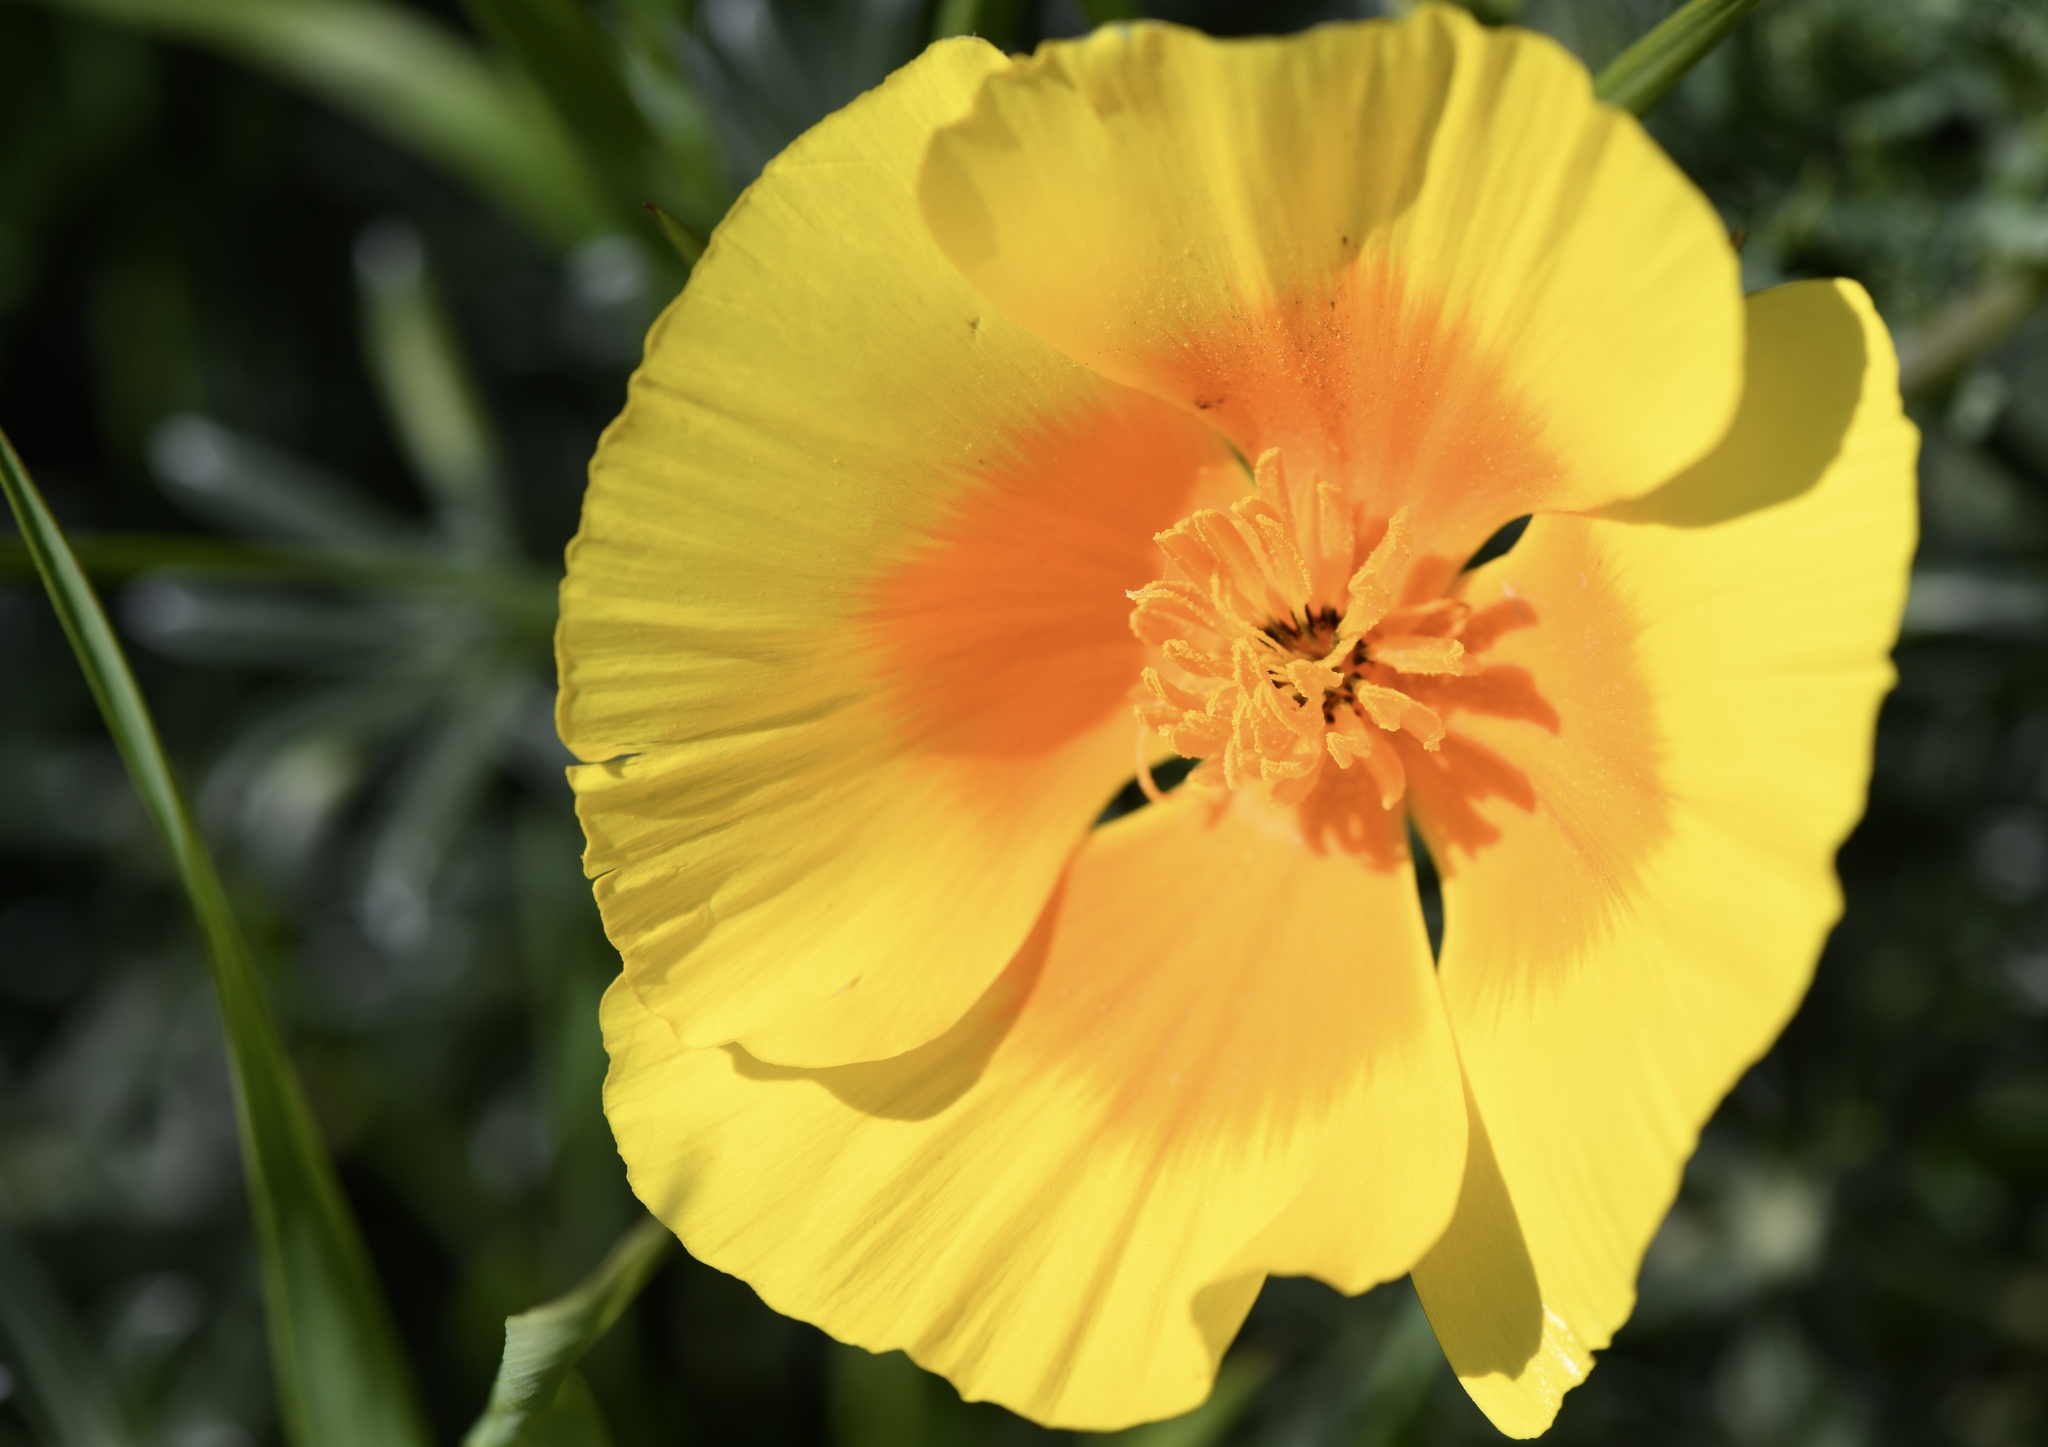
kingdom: Plantae
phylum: Tracheophyta
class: Magnoliopsida
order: Ranunculales
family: Papaveraceae
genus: Eschscholzia
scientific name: Eschscholzia californica
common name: California poppy
